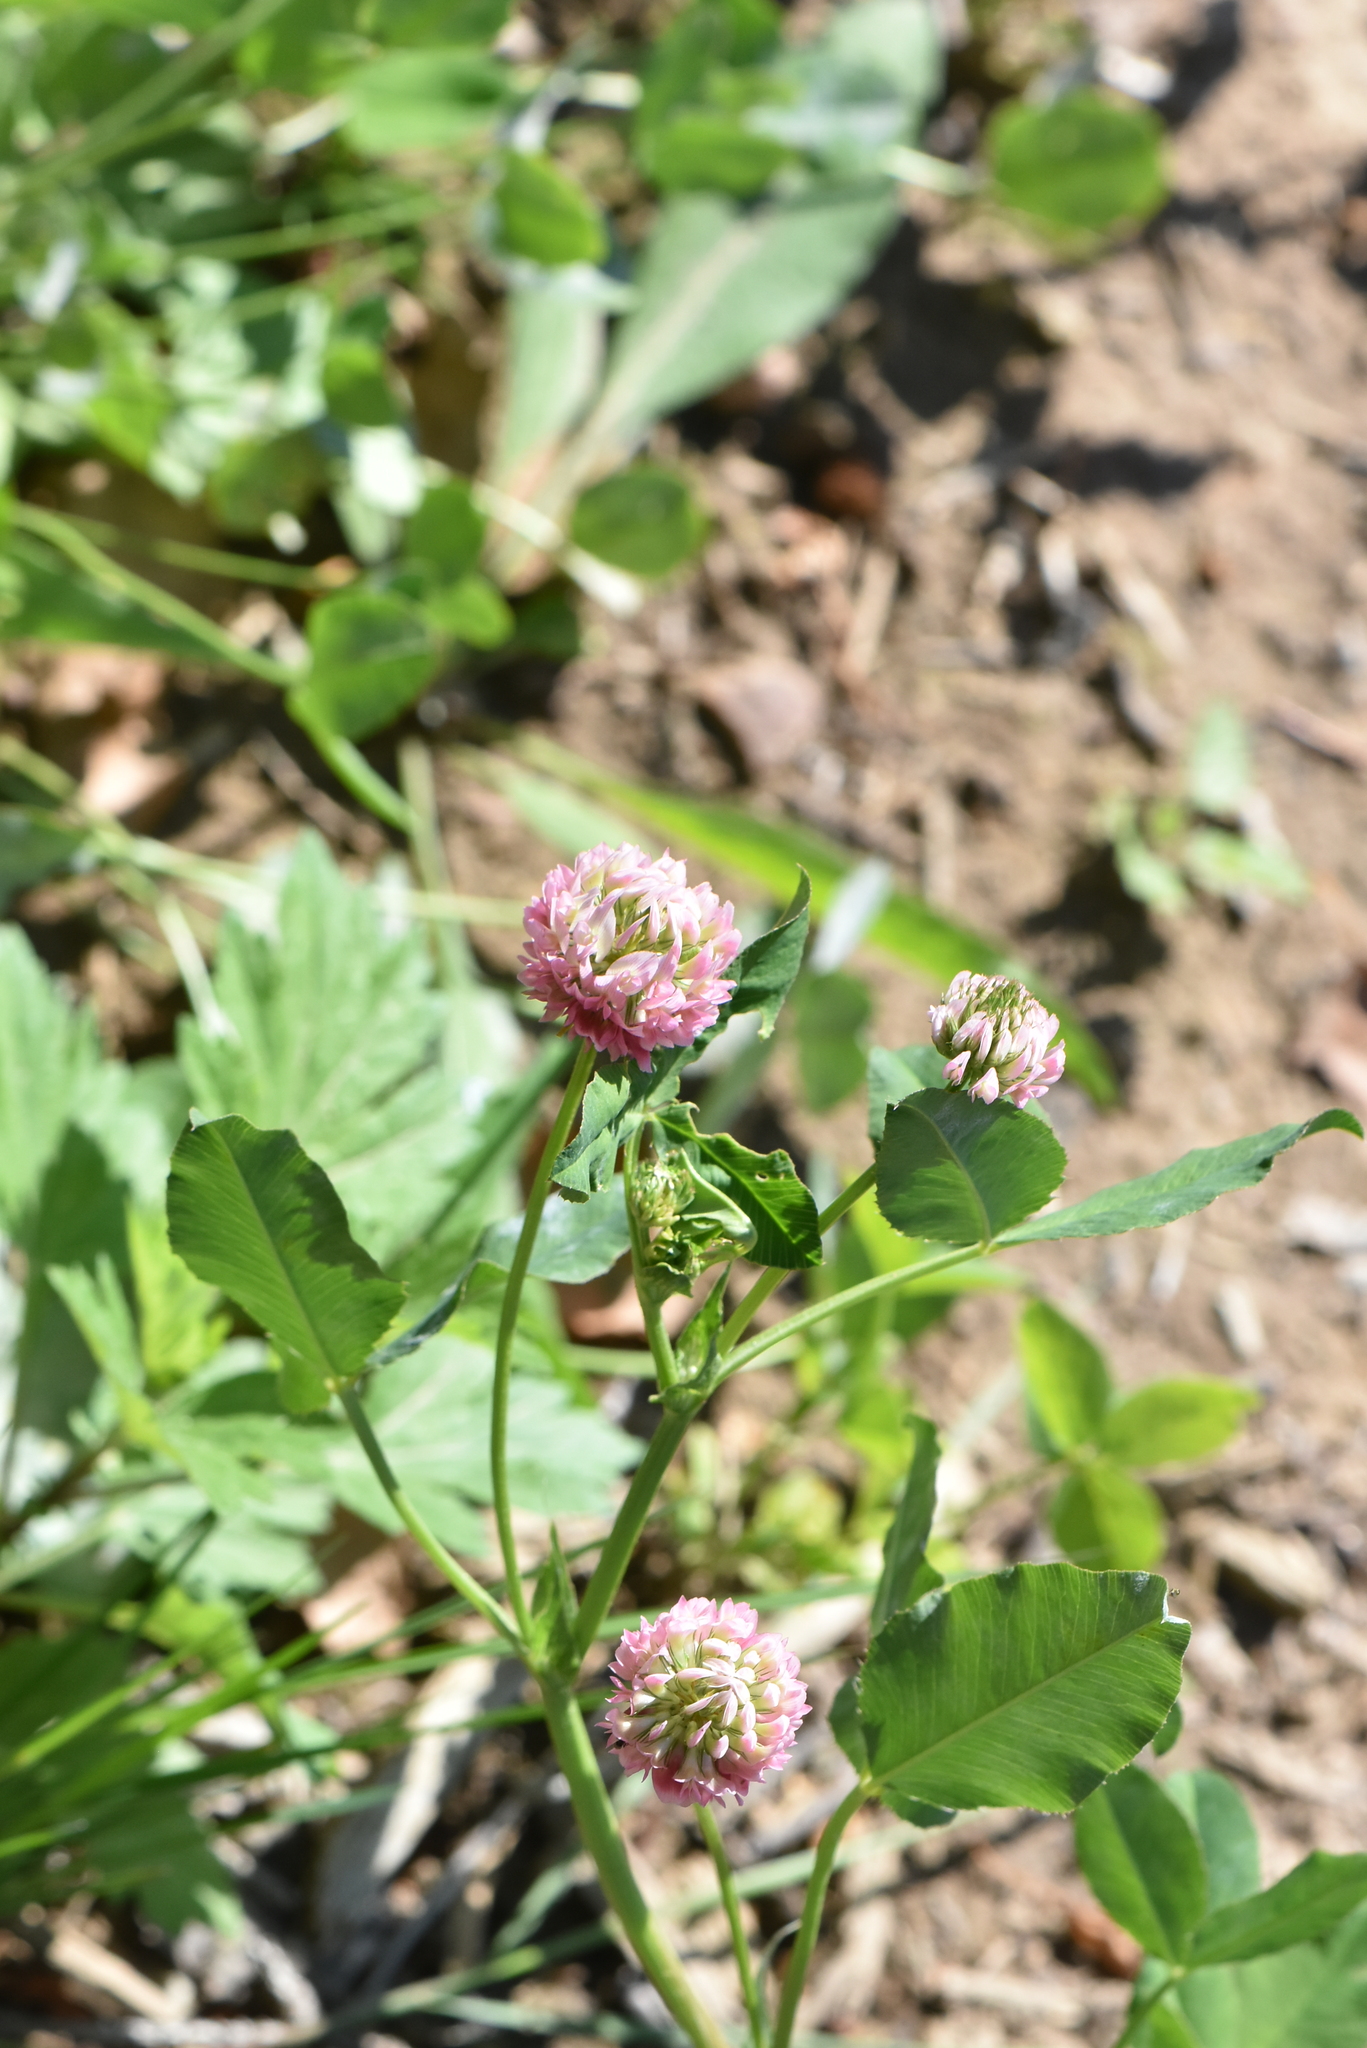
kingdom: Plantae
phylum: Tracheophyta
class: Magnoliopsida
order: Fabales
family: Fabaceae
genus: Trifolium
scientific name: Trifolium hybridum
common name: Alsike clover
